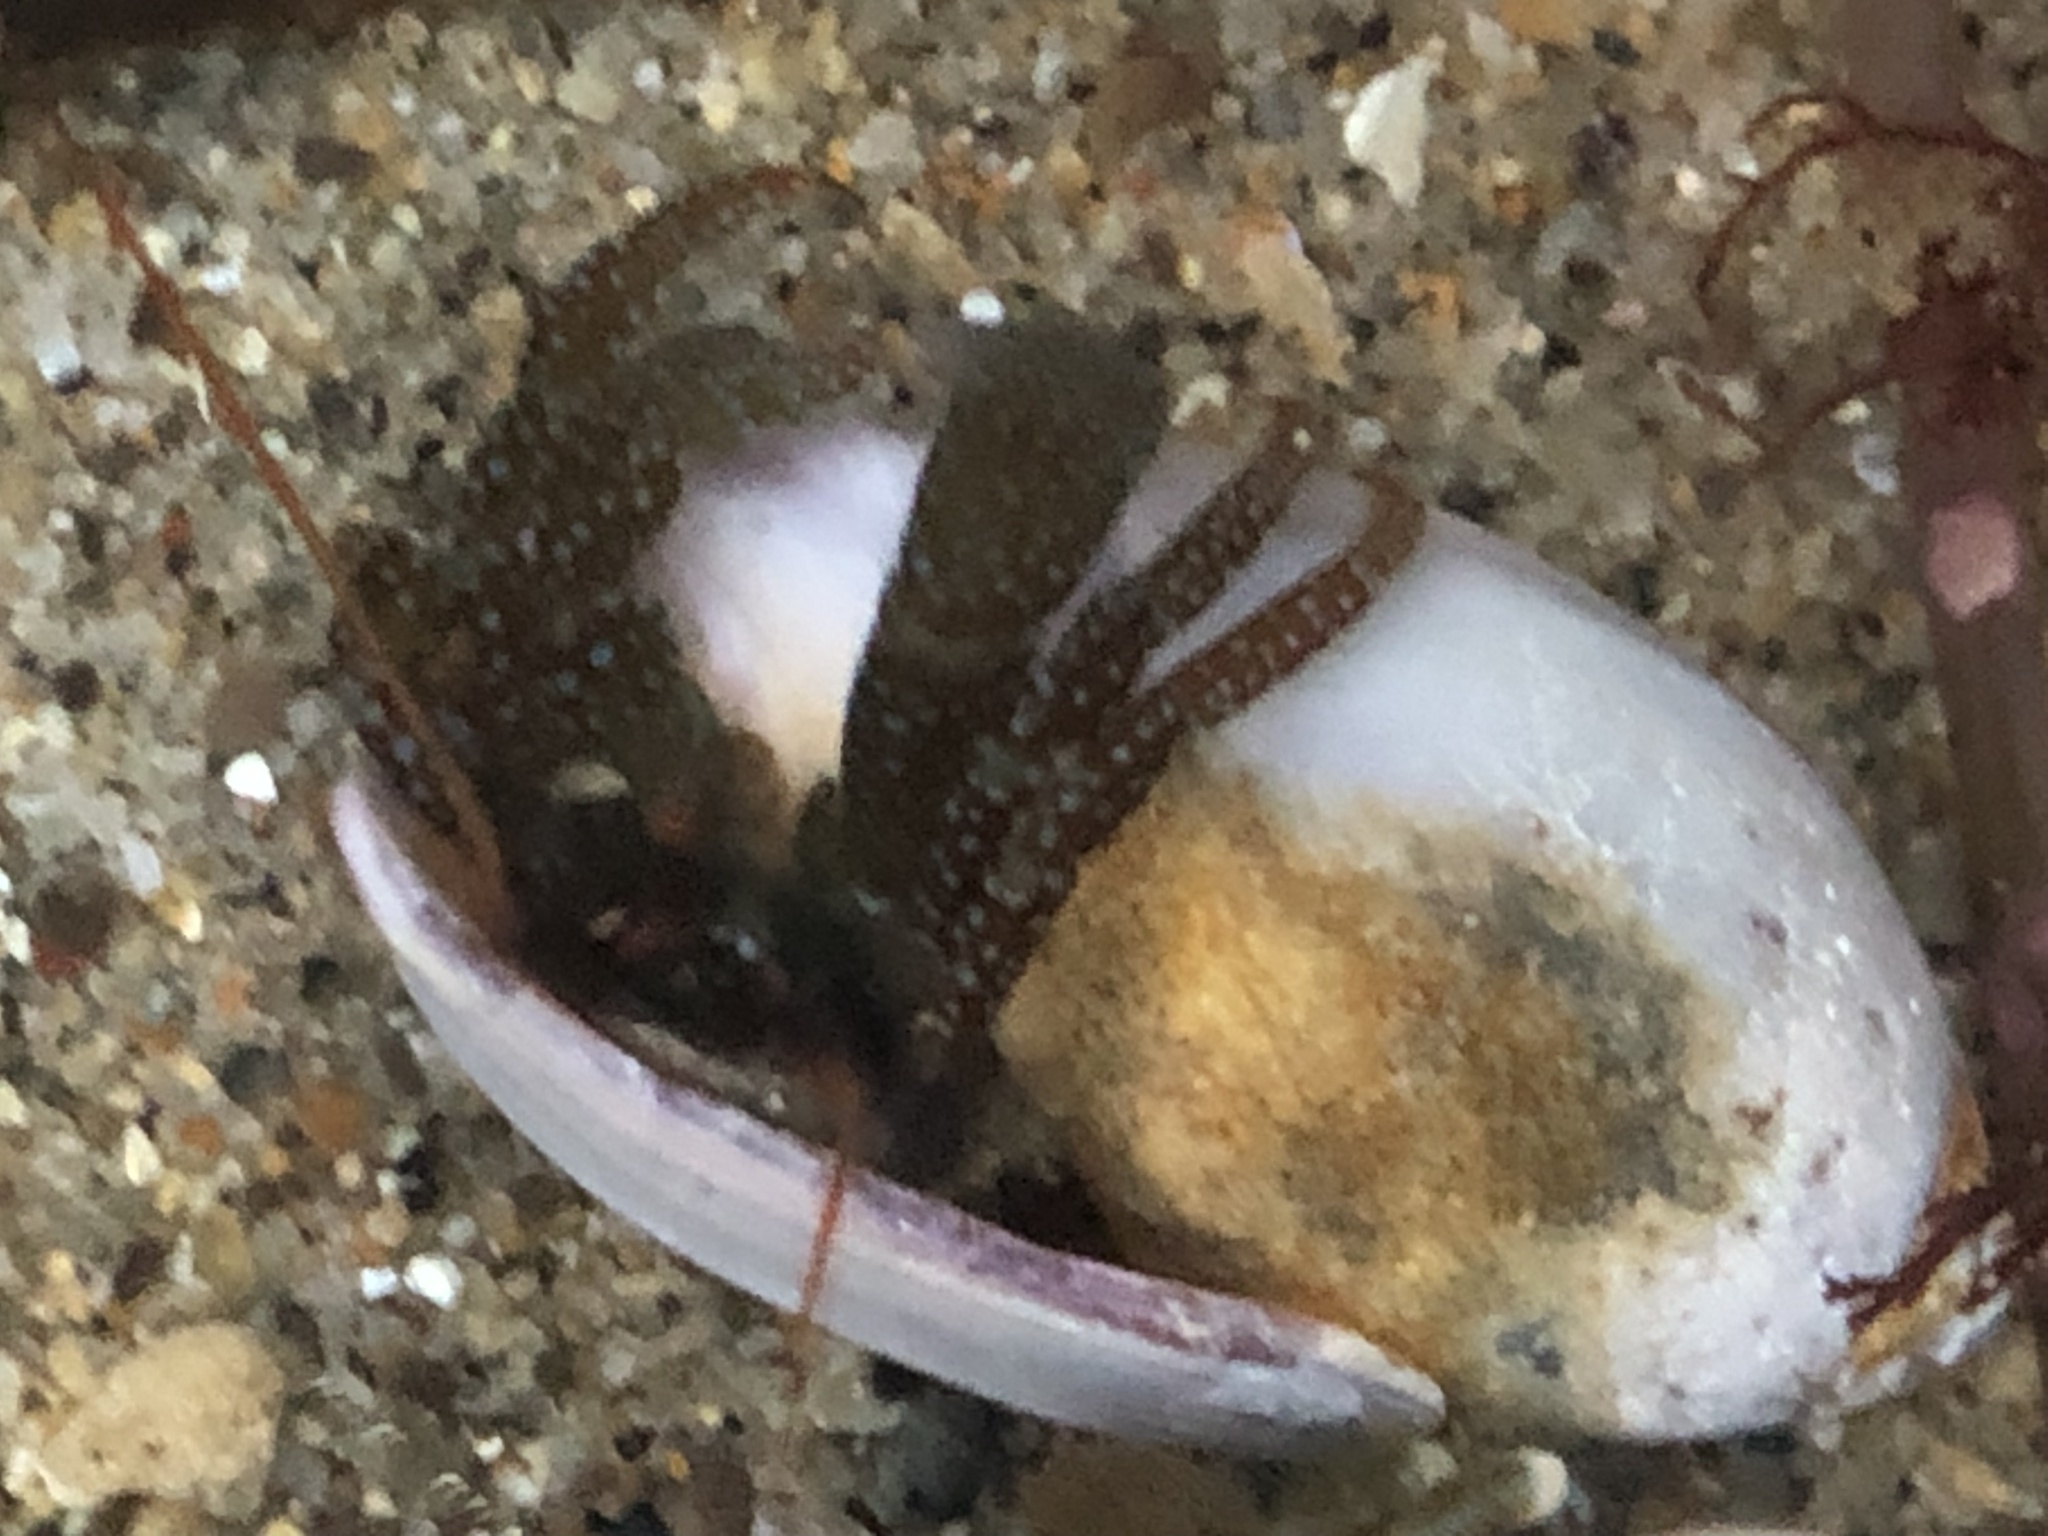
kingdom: Animalia
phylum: Arthropoda
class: Malacostraca
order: Decapoda
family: Paguridae
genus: Pagurus
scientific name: Pagurus granosimanus
